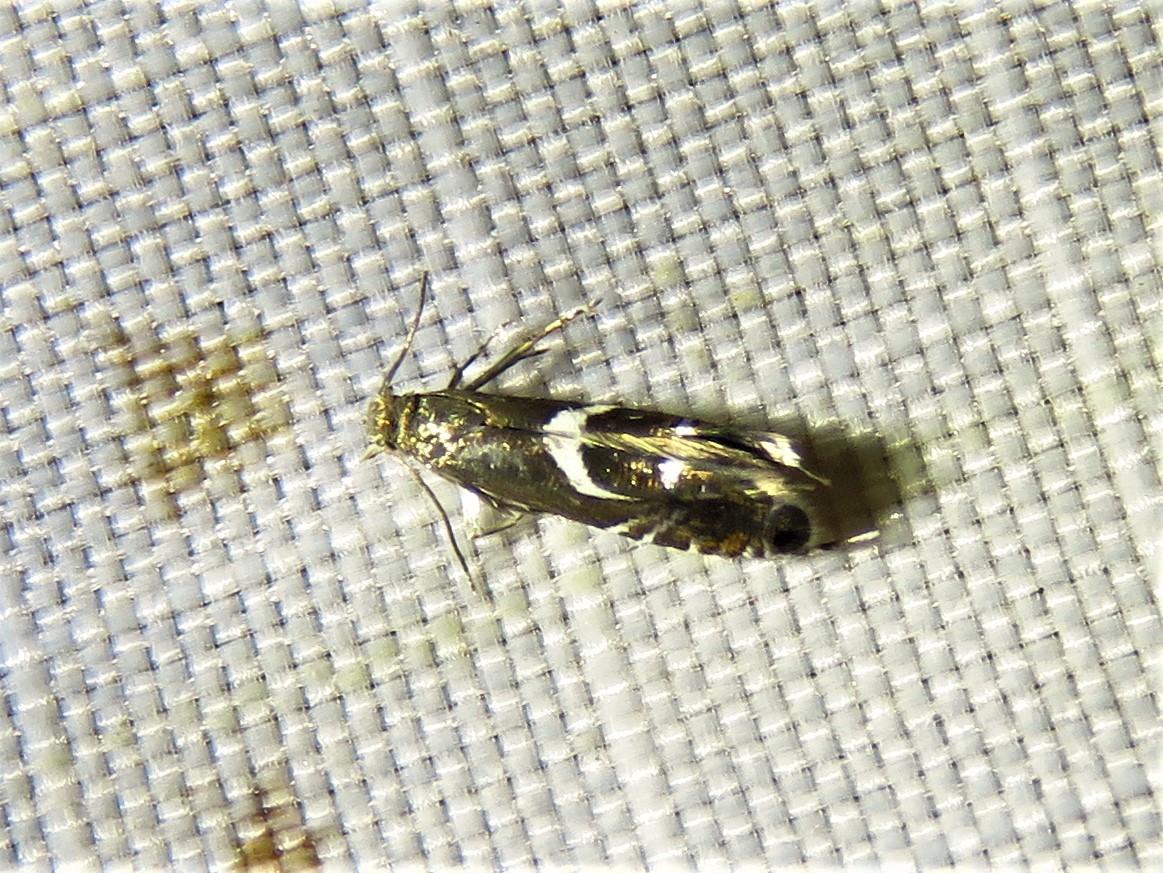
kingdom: Animalia
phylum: Arthropoda
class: Insecta
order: Lepidoptera
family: Glyphipterigidae
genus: Glyphipterix
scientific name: Glyphipterix Diploschizia impigritella
